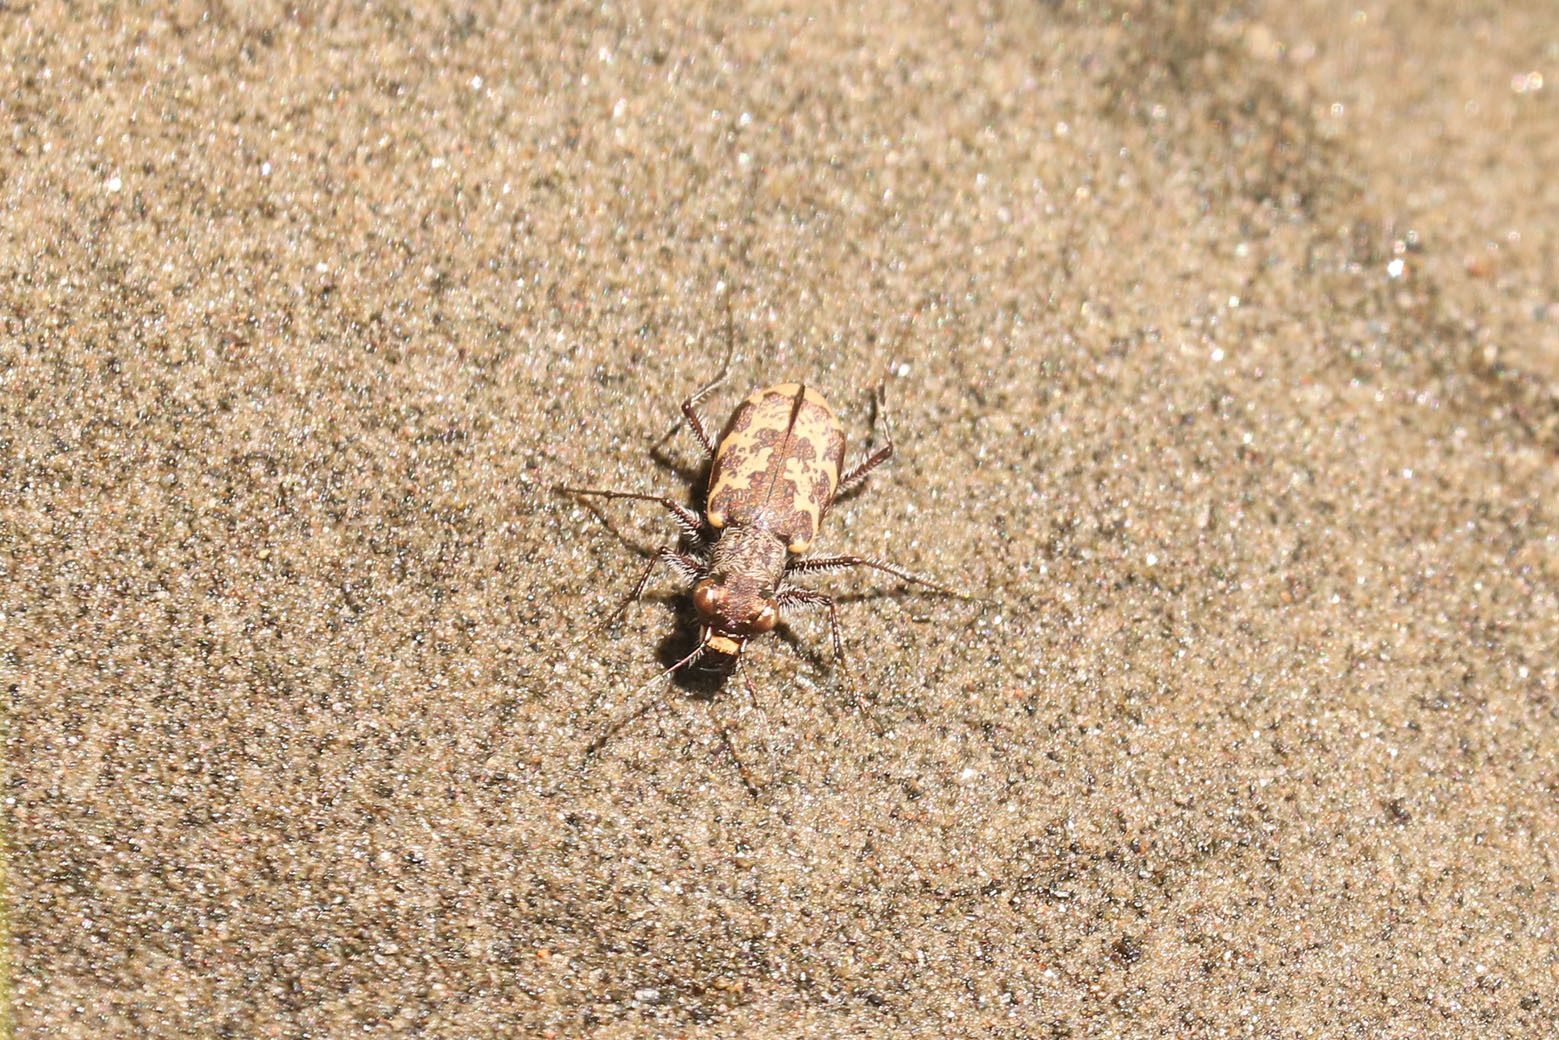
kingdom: Animalia
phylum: Arthropoda
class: Insecta
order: Coleoptera
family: Carabidae
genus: Cylindera
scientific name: Cylindera apiata
